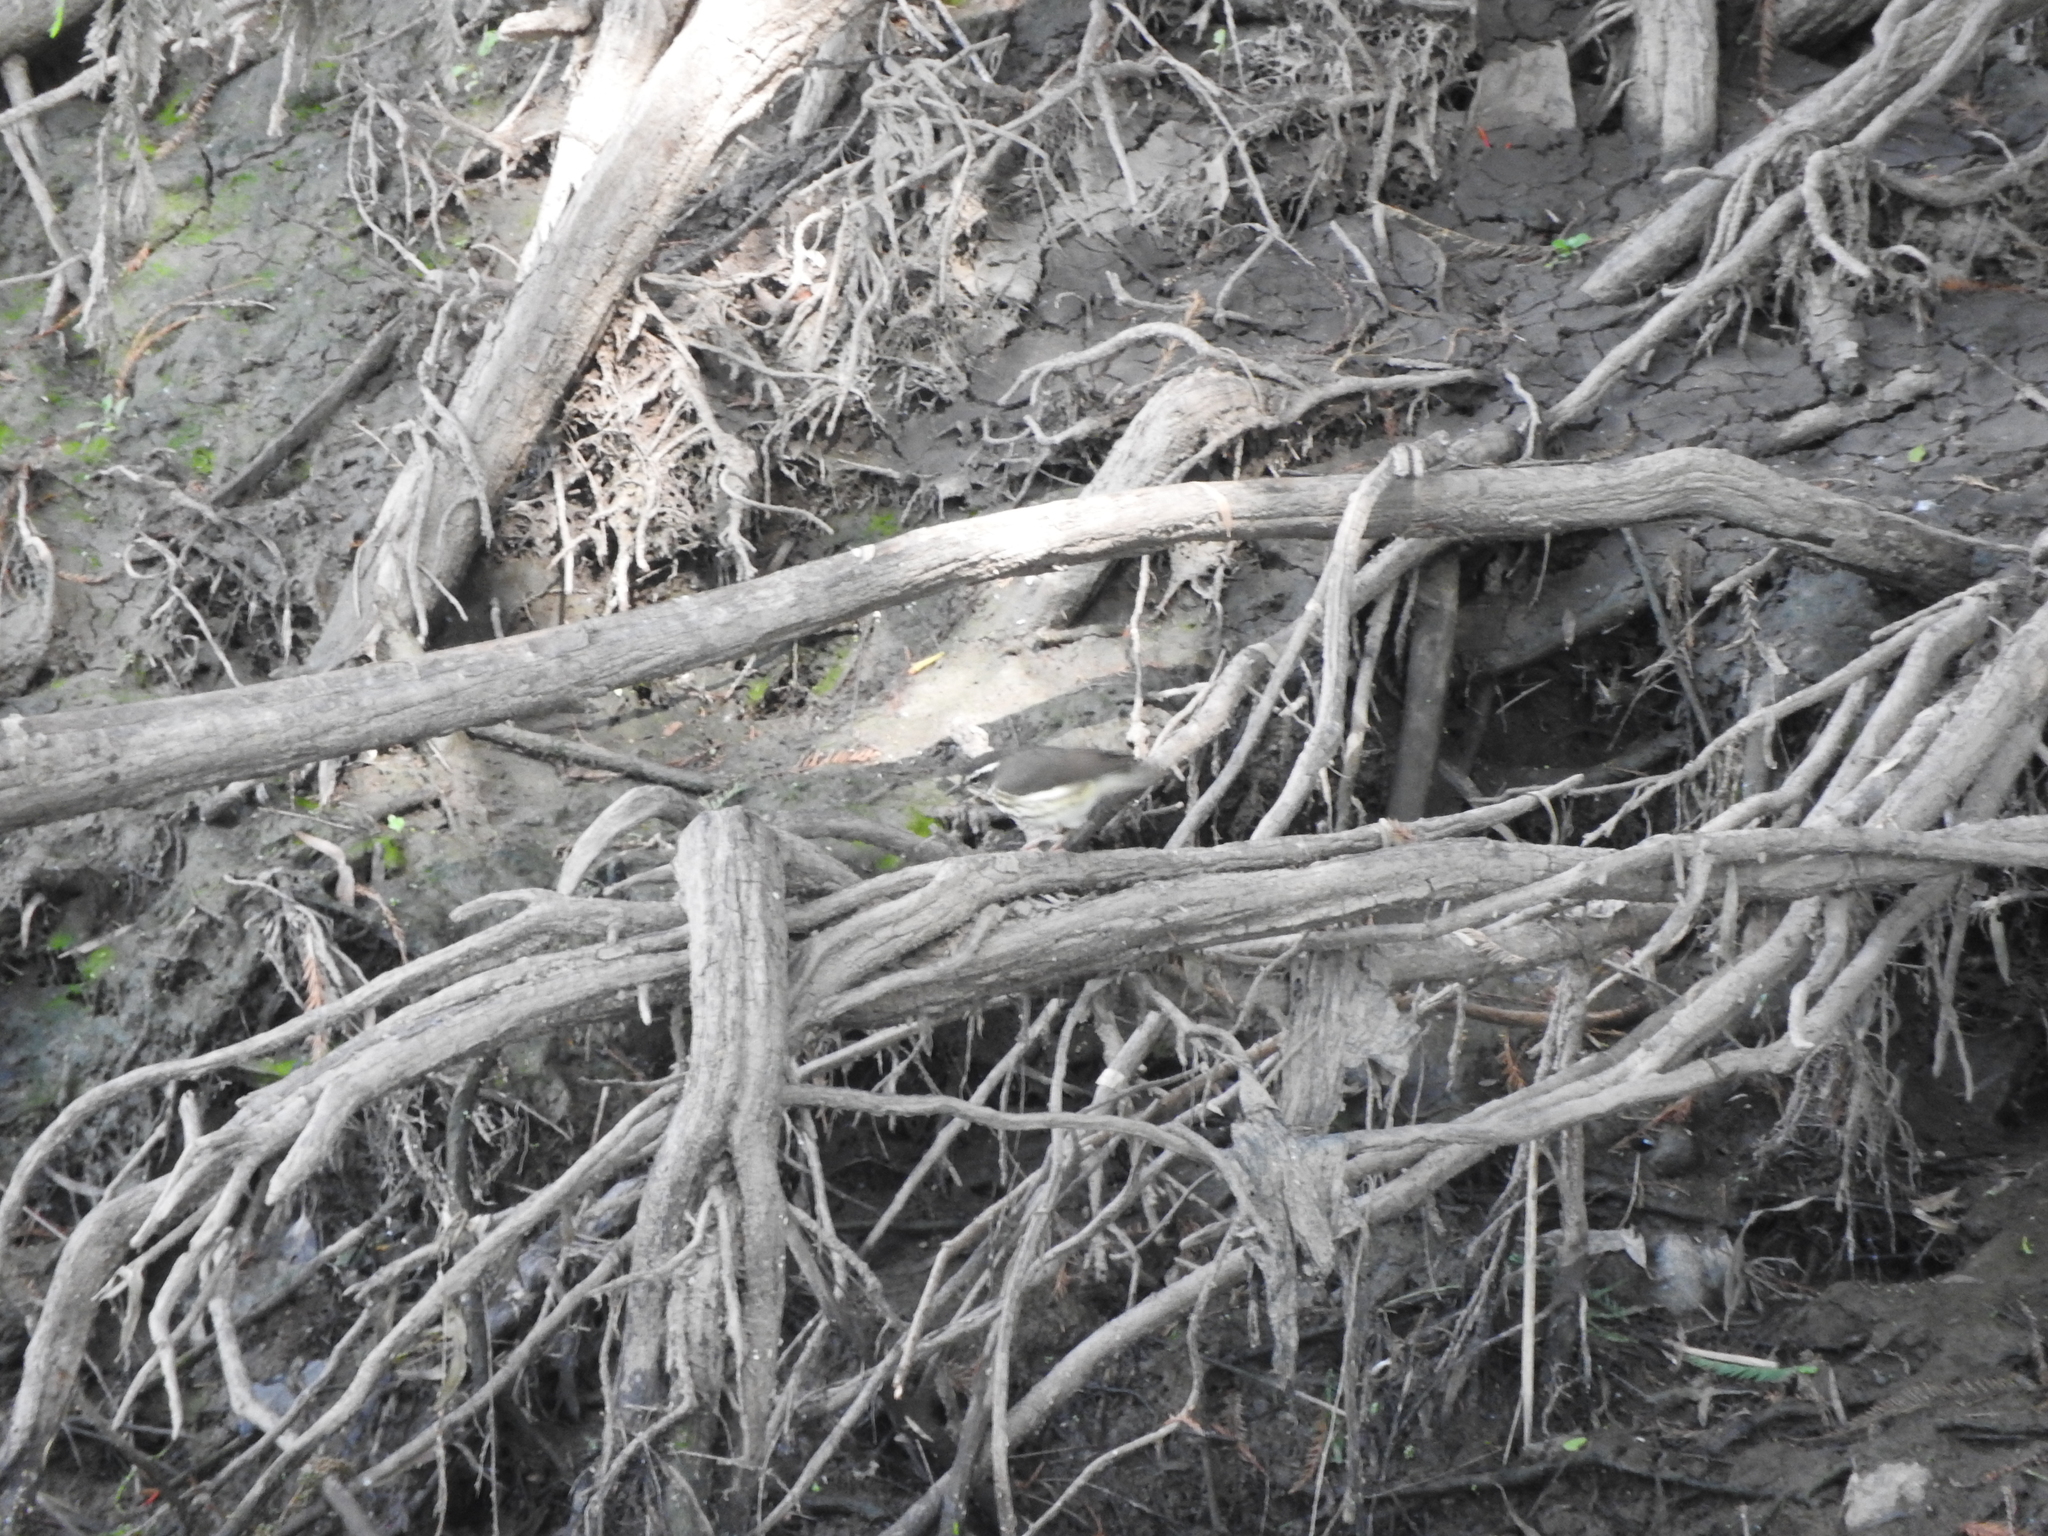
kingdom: Animalia
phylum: Chordata
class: Aves
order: Passeriformes
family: Parulidae
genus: Parkesia
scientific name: Parkesia motacilla
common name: Louisiana waterthrush
